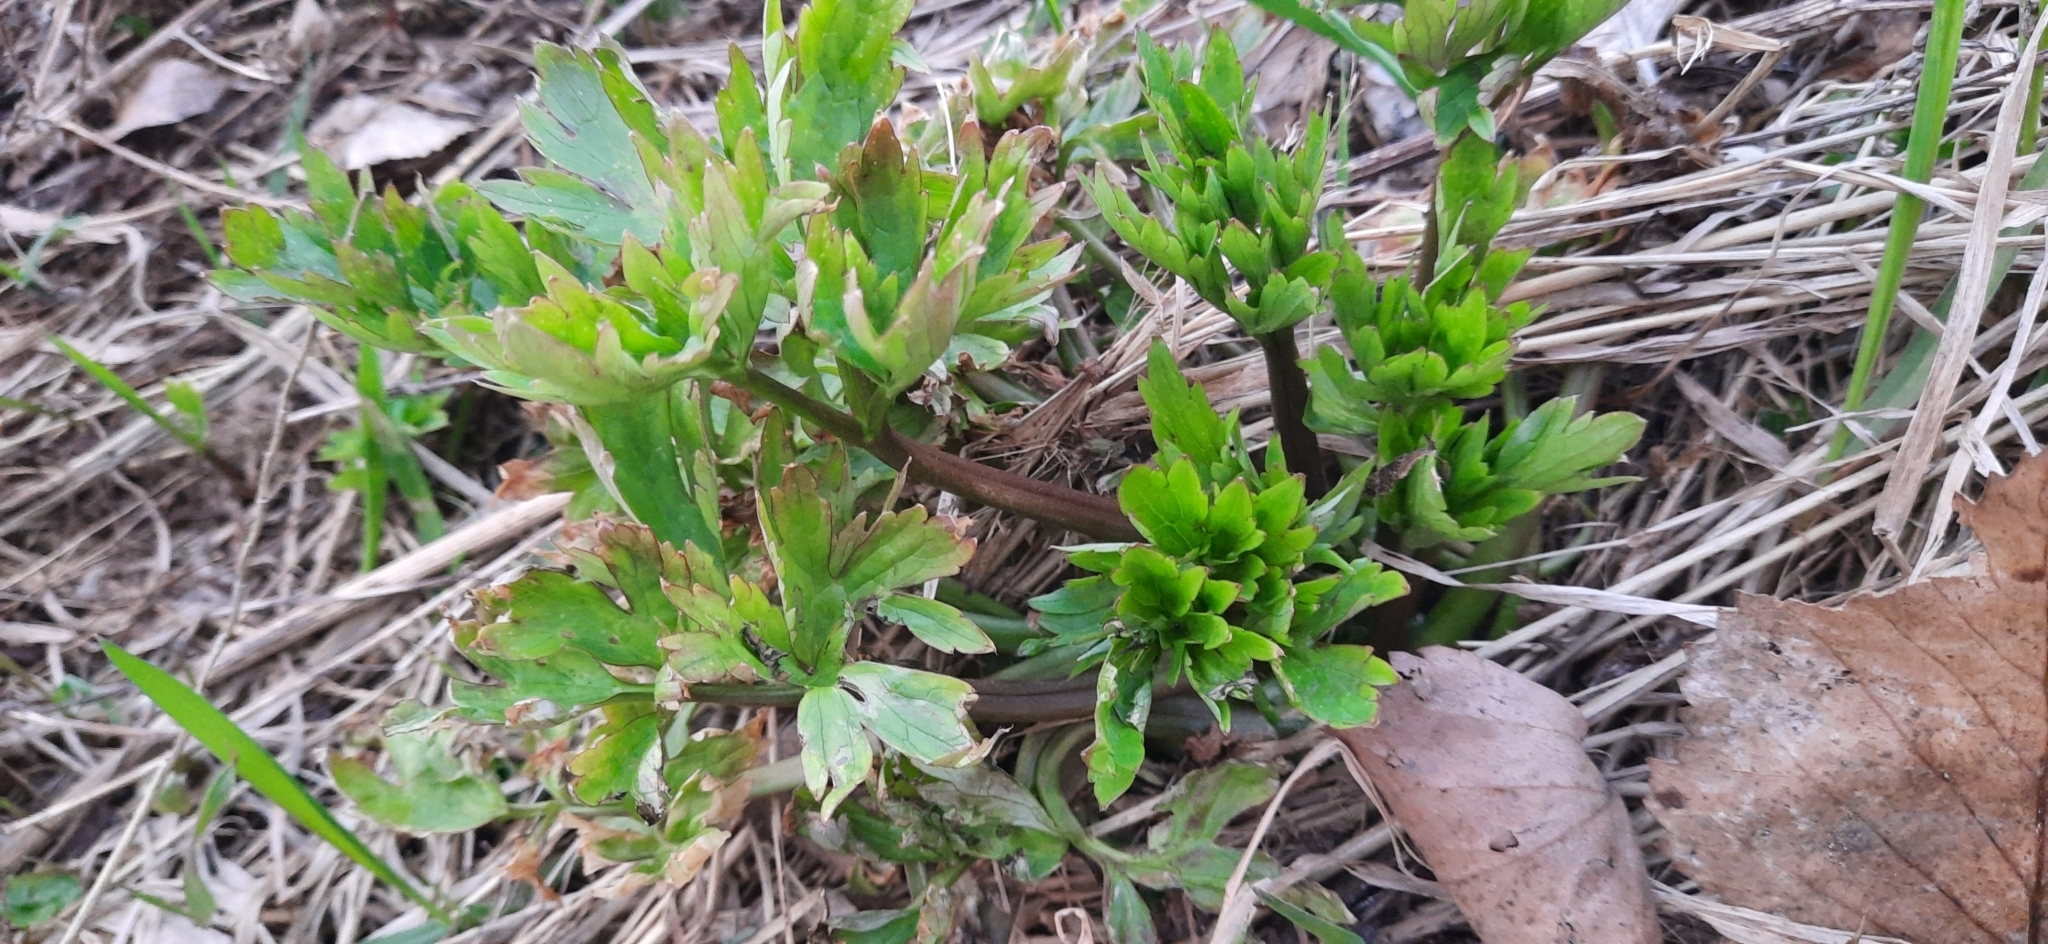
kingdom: Plantae
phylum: Tracheophyta
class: Magnoliopsida
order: Ranunculales
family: Ranunculaceae
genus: Ranunculus
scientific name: Ranunculus repens
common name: Creeping buttercup
